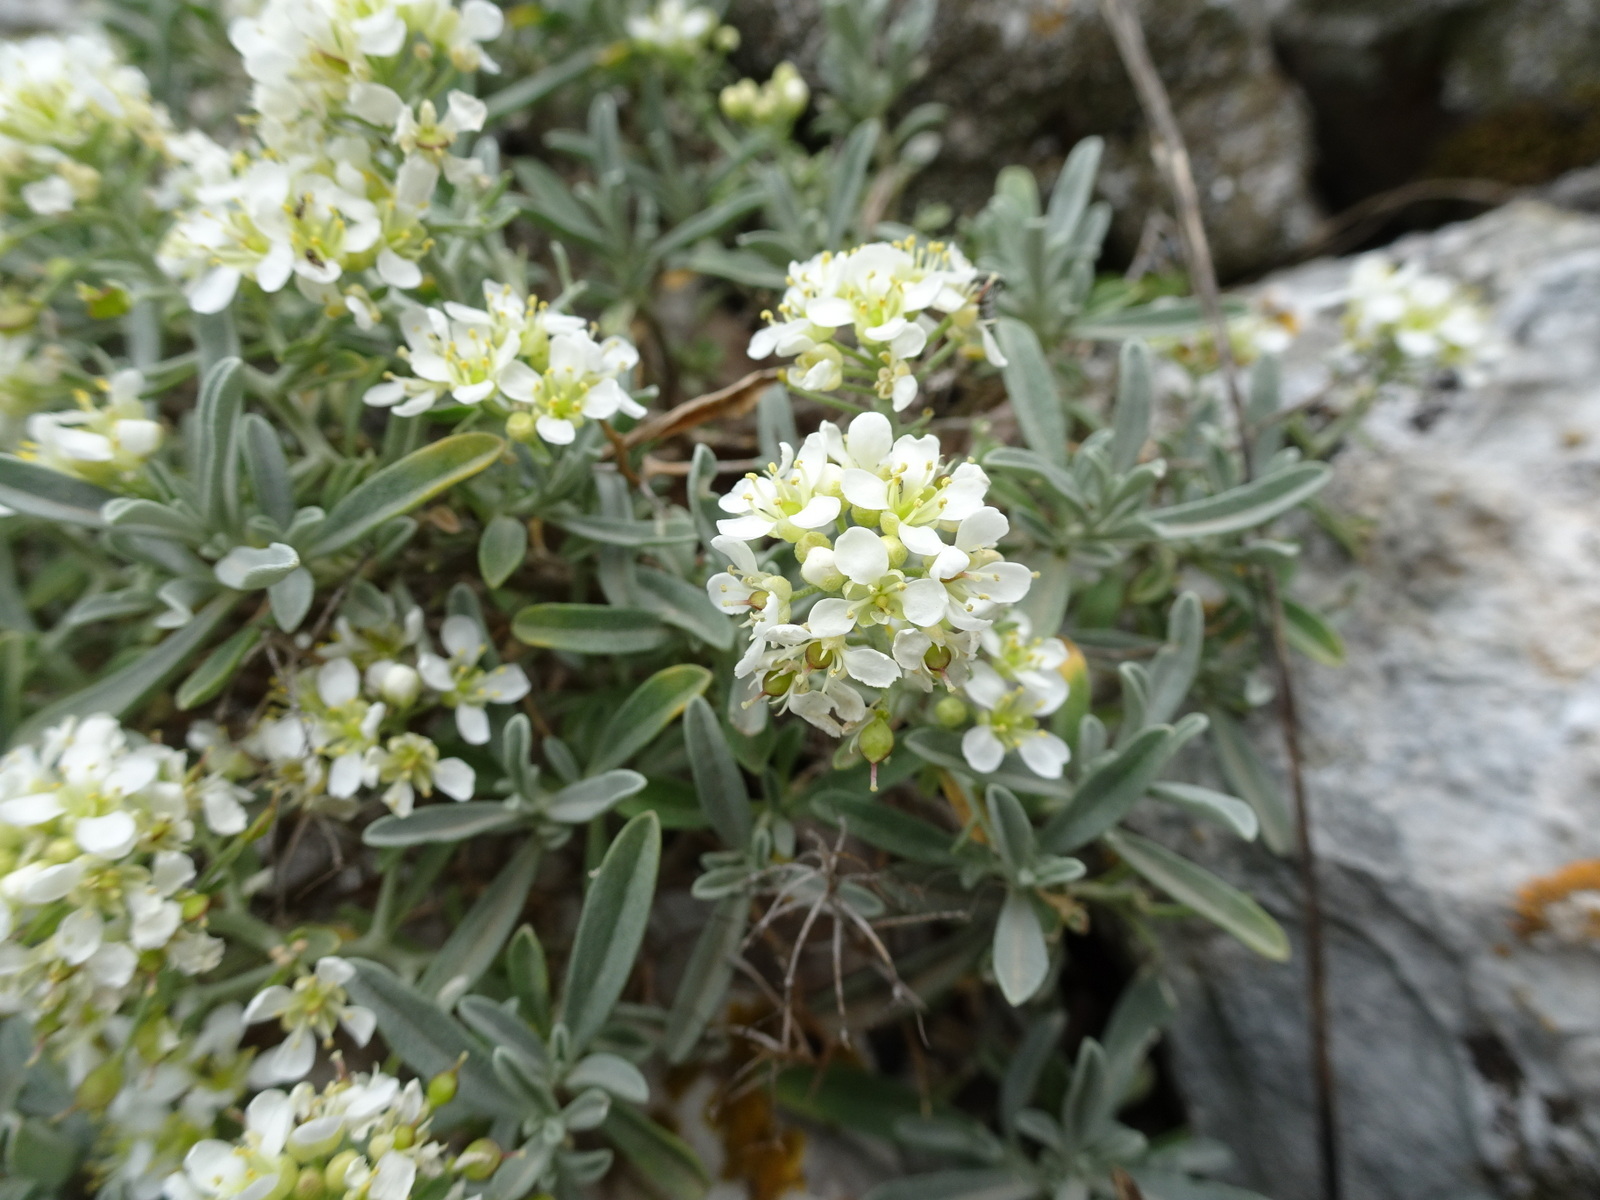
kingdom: Plantae
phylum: Tracheophyta
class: Magnoliopsida
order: Brassicales
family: Brassicaceae
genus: Hormathophylla
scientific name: Hormathophylla spinosa
